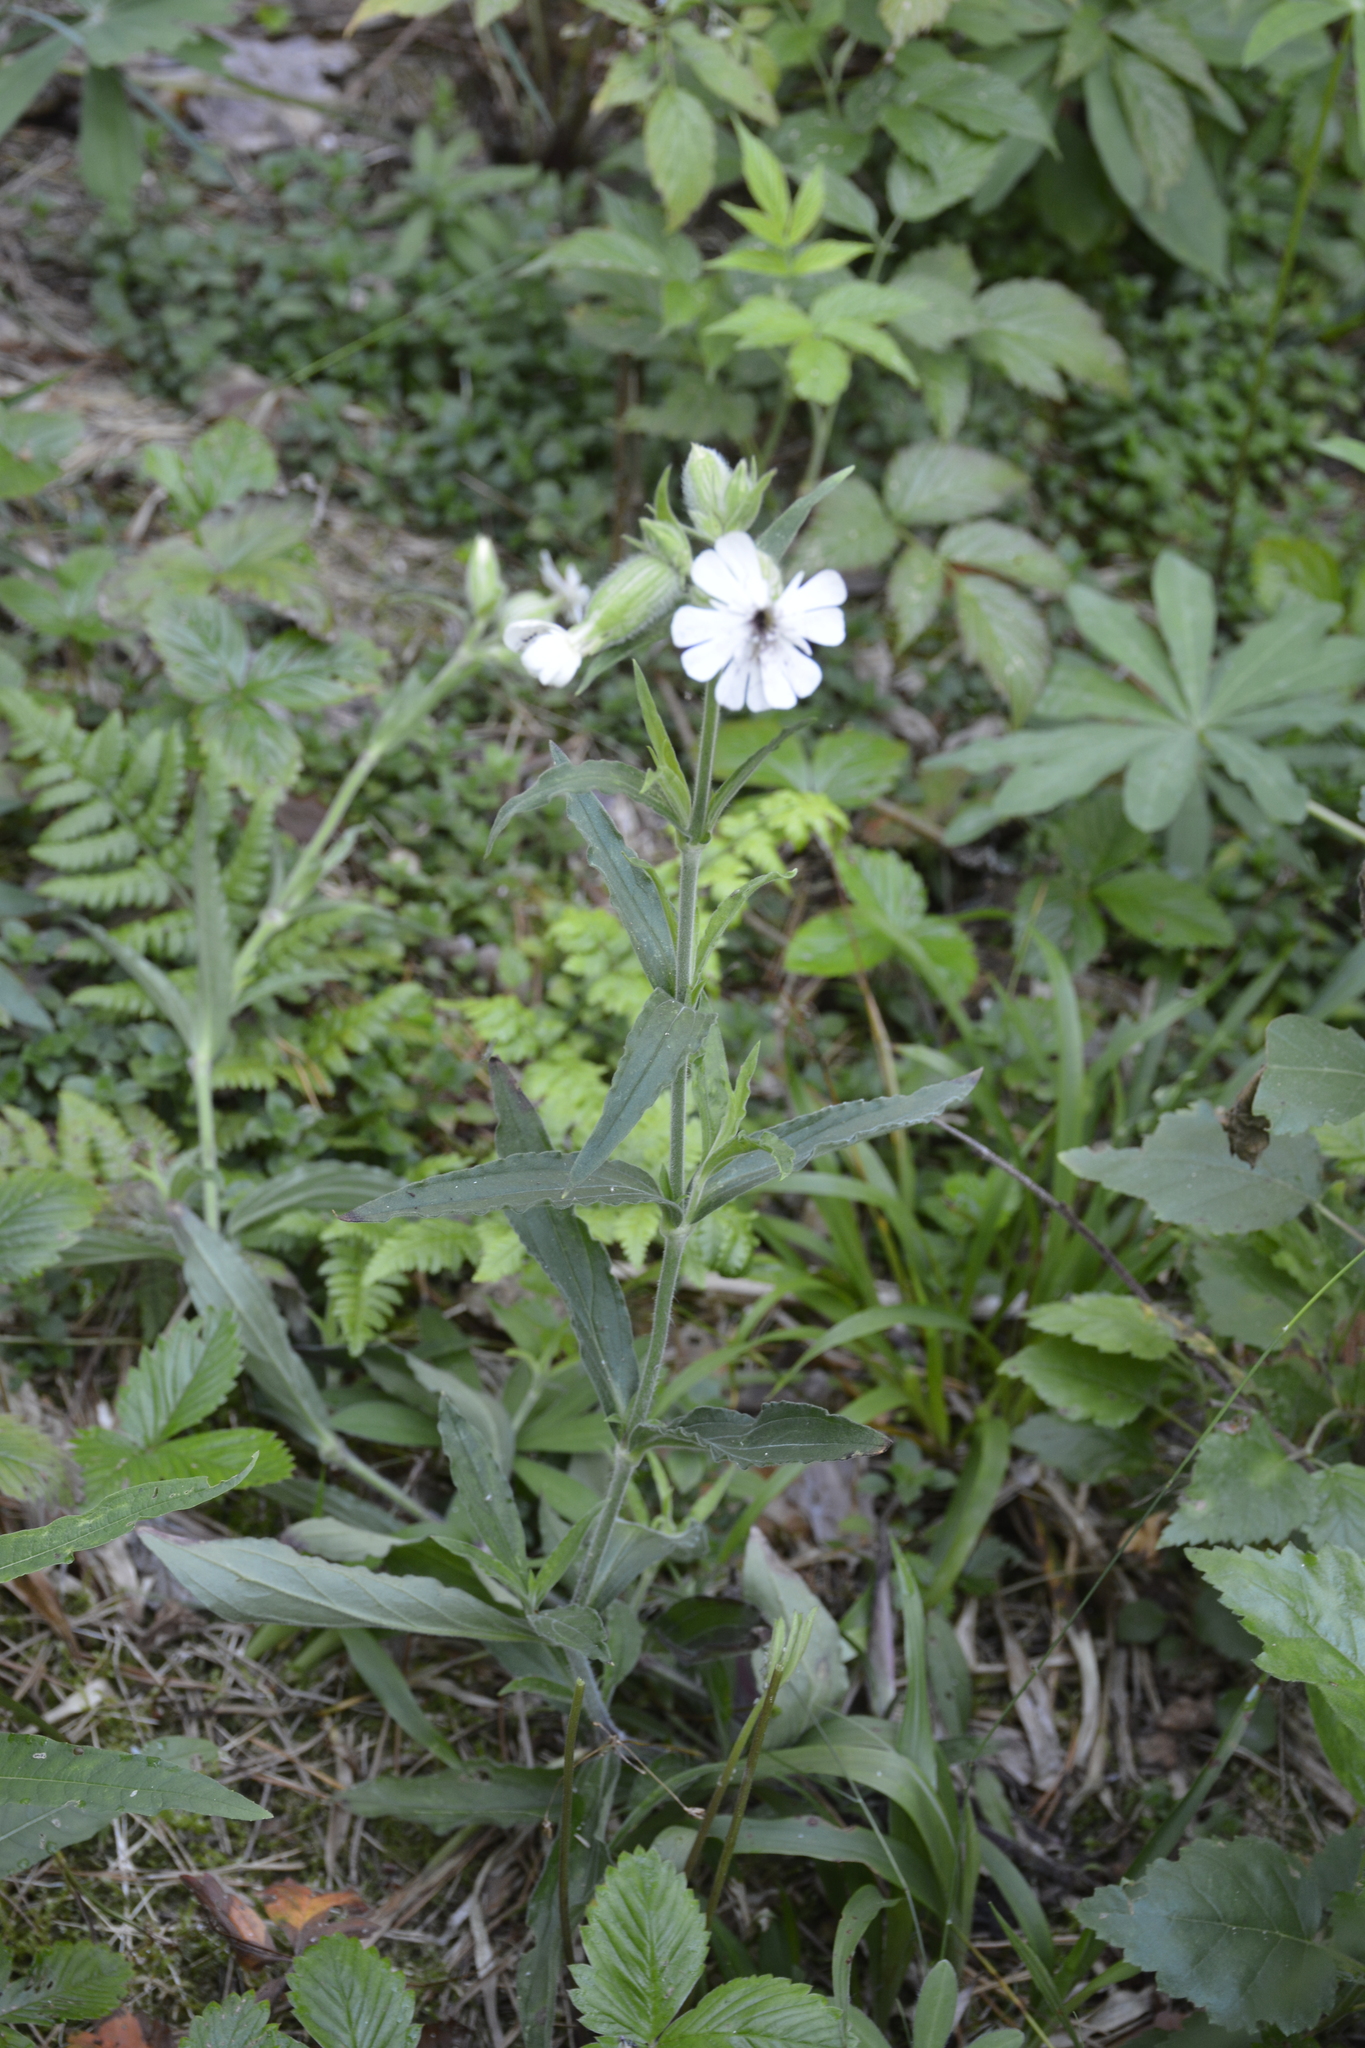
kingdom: Plantae
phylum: Tracheophyta
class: Magnoliopsida
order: Caryophyllales
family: Caryophyllaceae
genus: Silene
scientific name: Silene latifolia
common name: White campion
